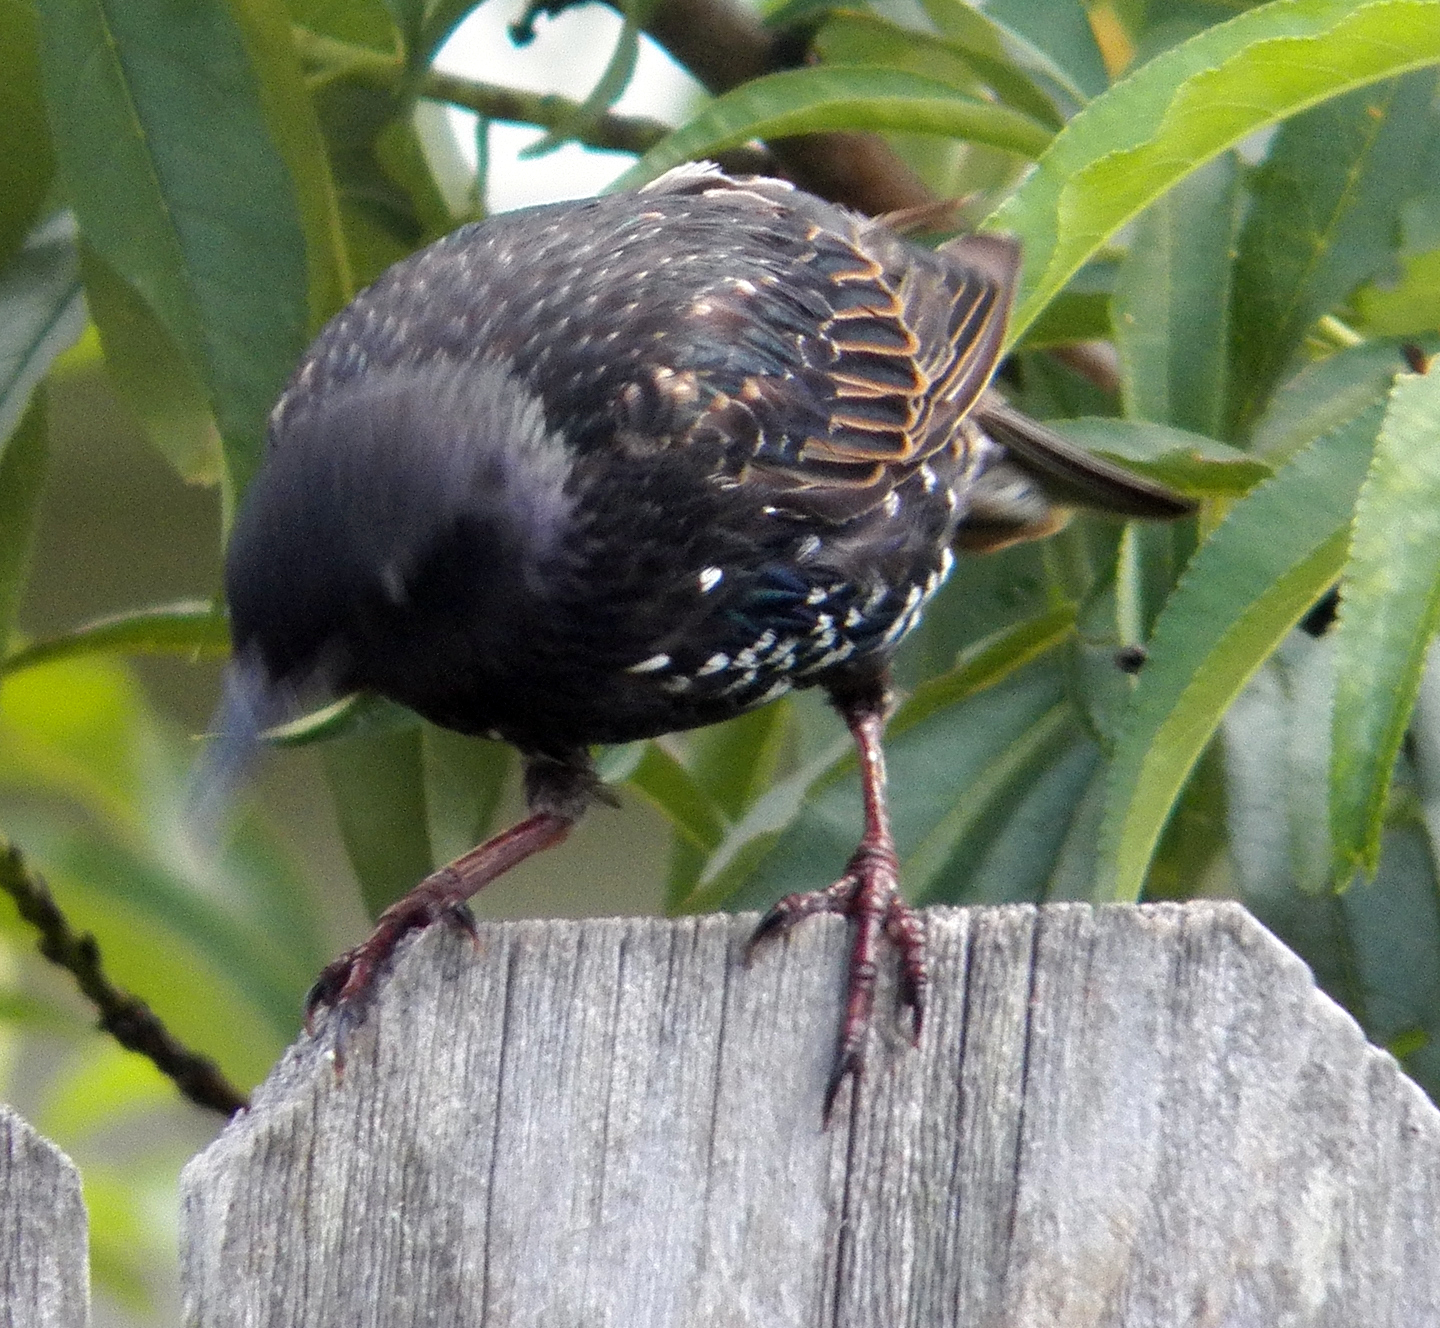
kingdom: Animalia
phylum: Chordata
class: Aves
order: Passeriformes
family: Sturnidae
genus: Sturnus
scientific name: Sturnus vulgaris
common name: Common starling
